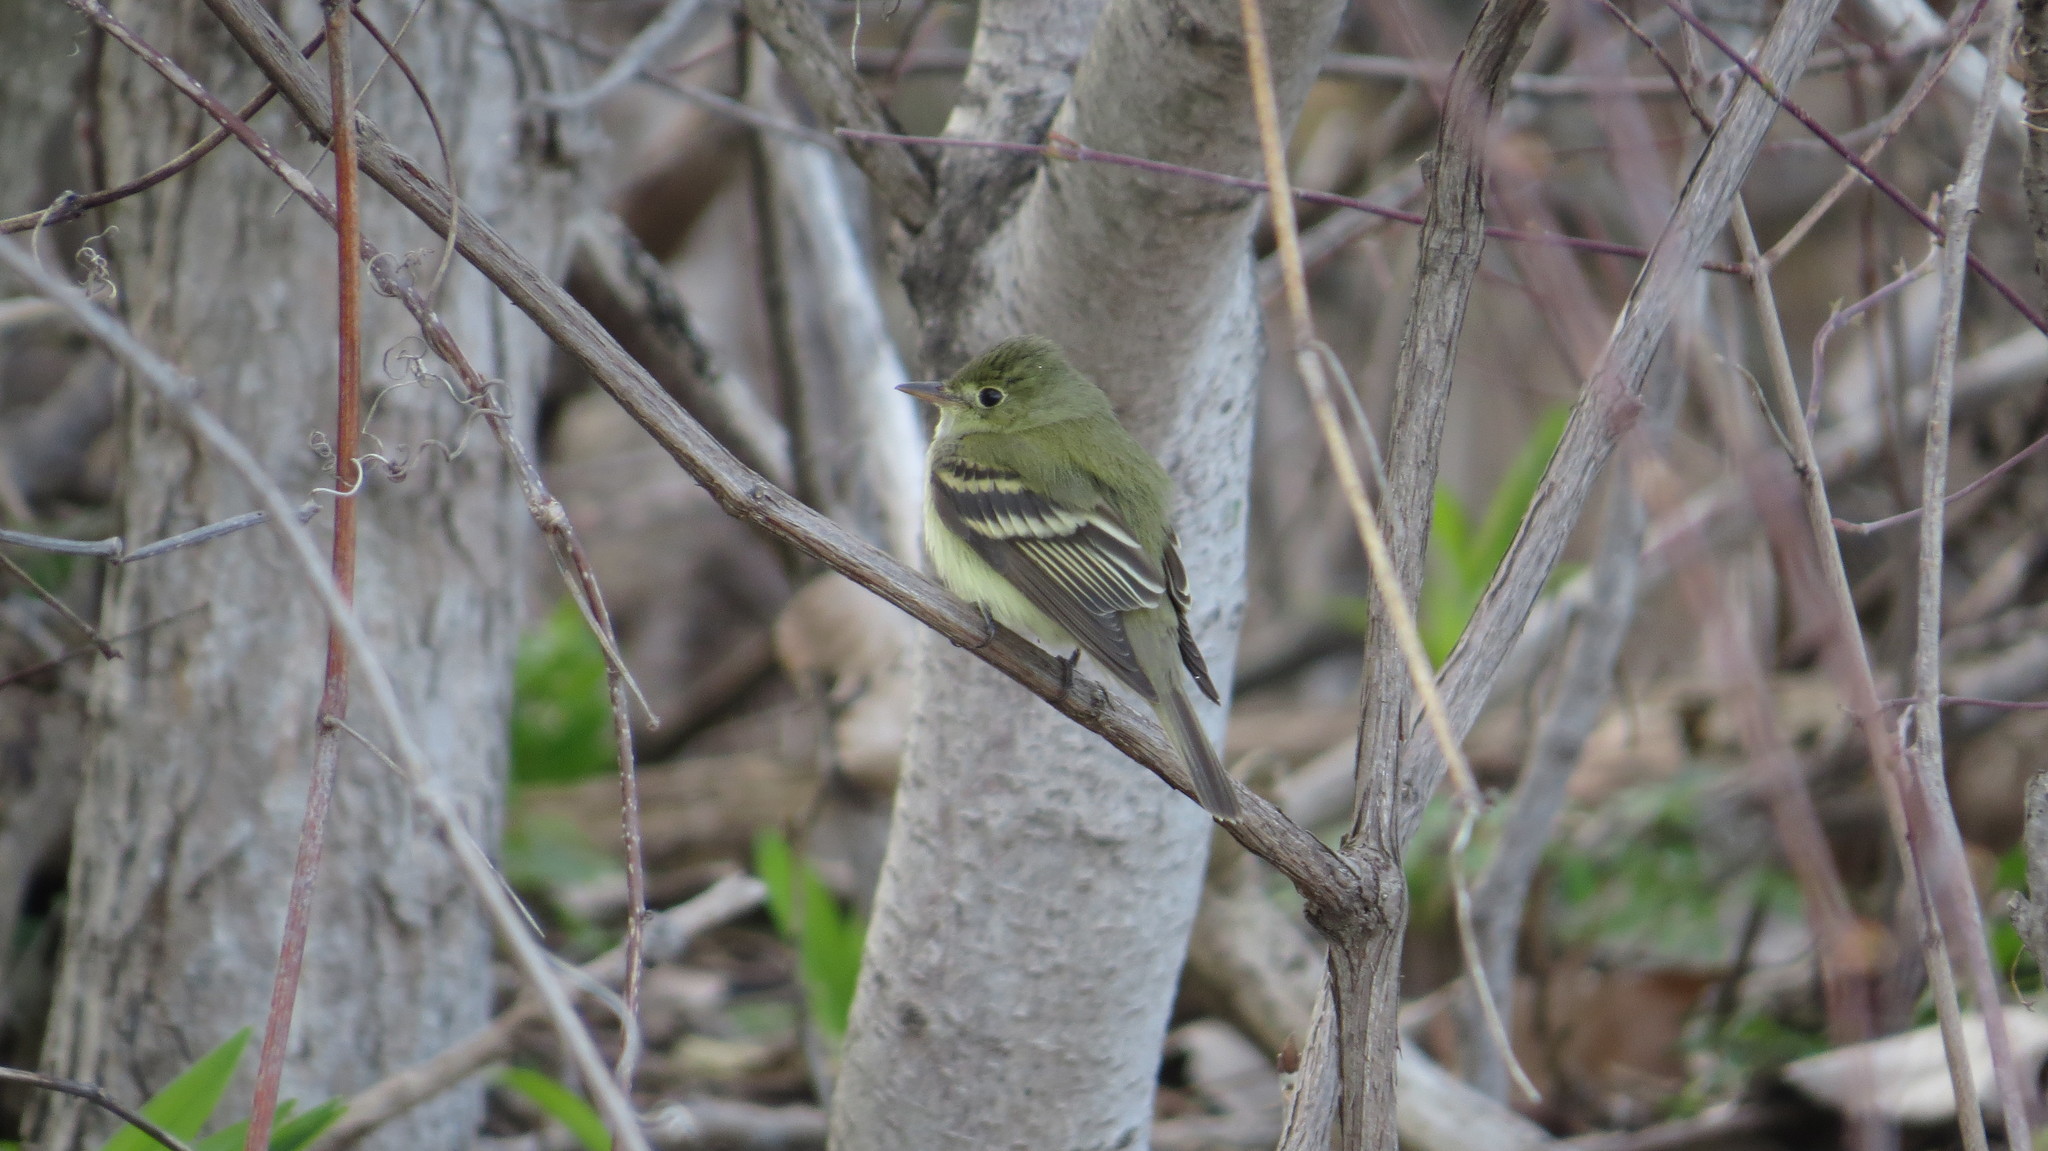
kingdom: Animalia
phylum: Chordata
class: Aves
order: Passeriformes
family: Tyrannidae
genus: Empidonax
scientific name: Empidonax virescens
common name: Acadian flycatcher
